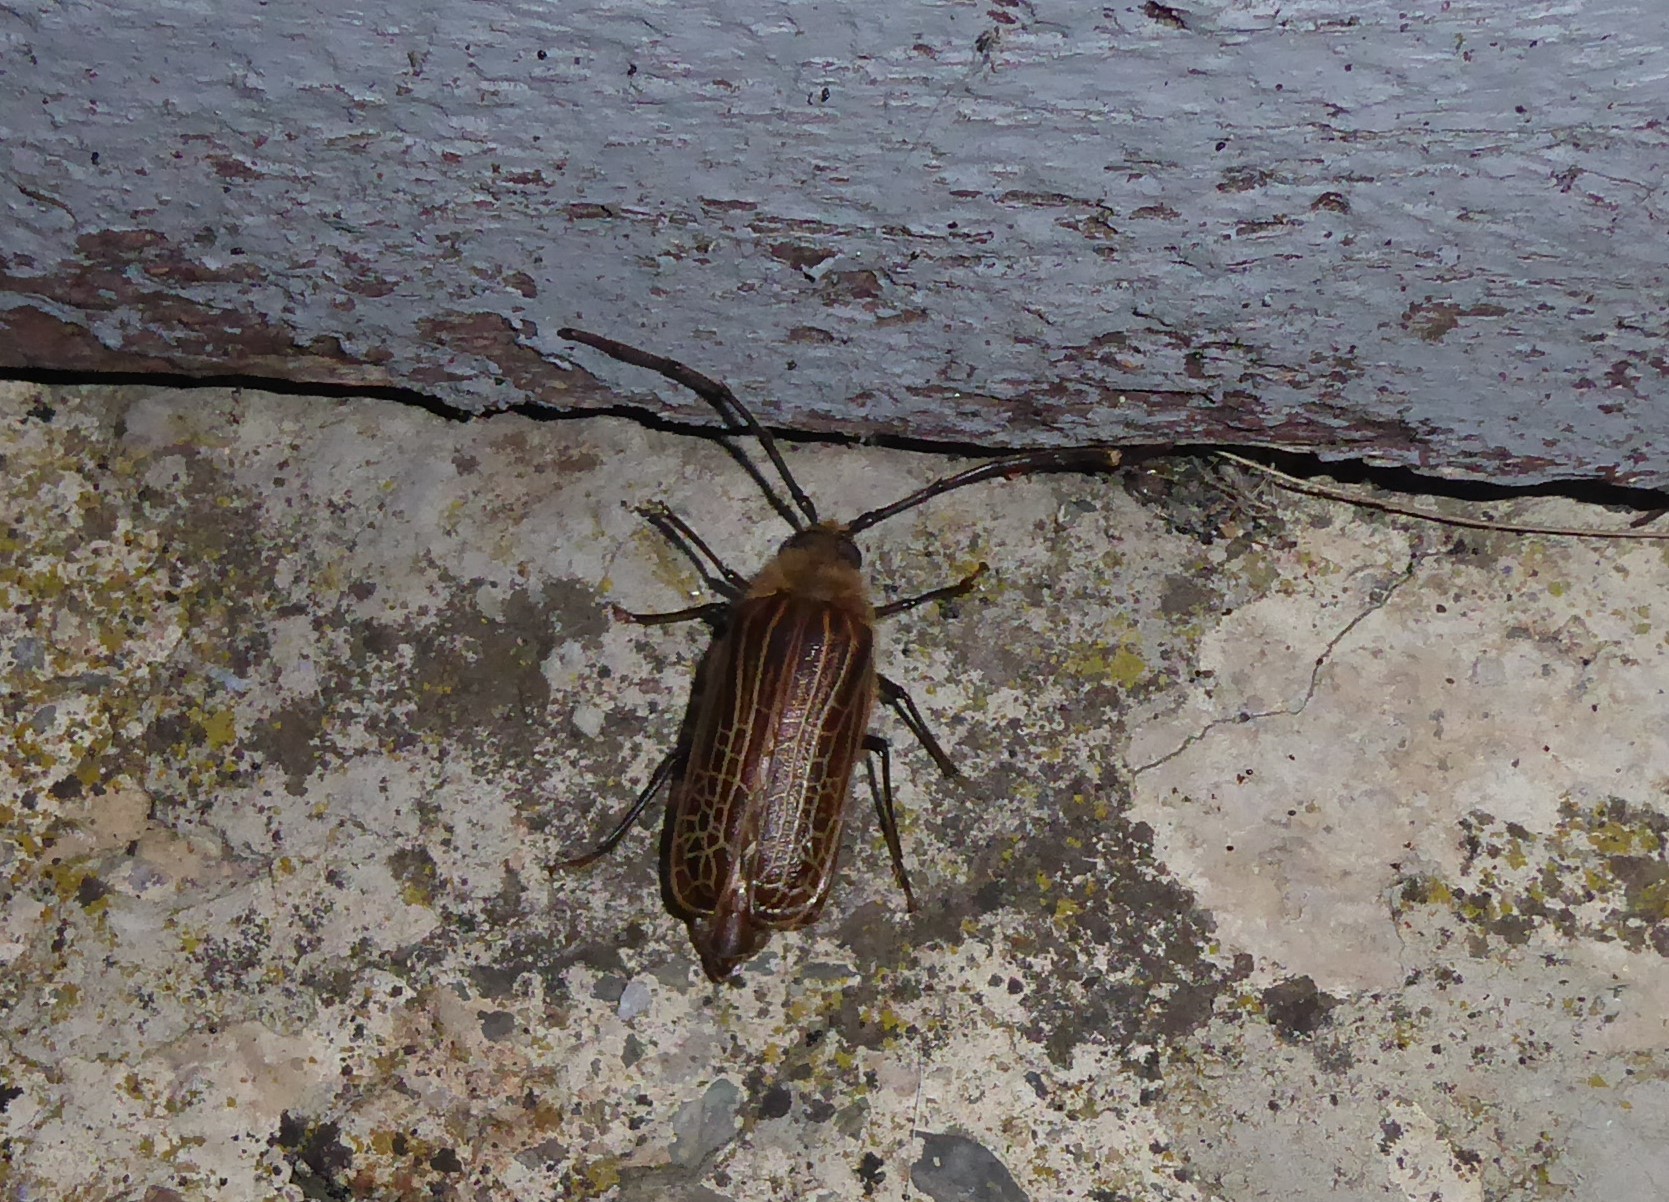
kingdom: Animalia
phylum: Arthropoda
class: Insecta
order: Coleoptera
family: Cerambycidae
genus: Prionoplus
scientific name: Prionoplus reticularis
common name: Huhu beetle
